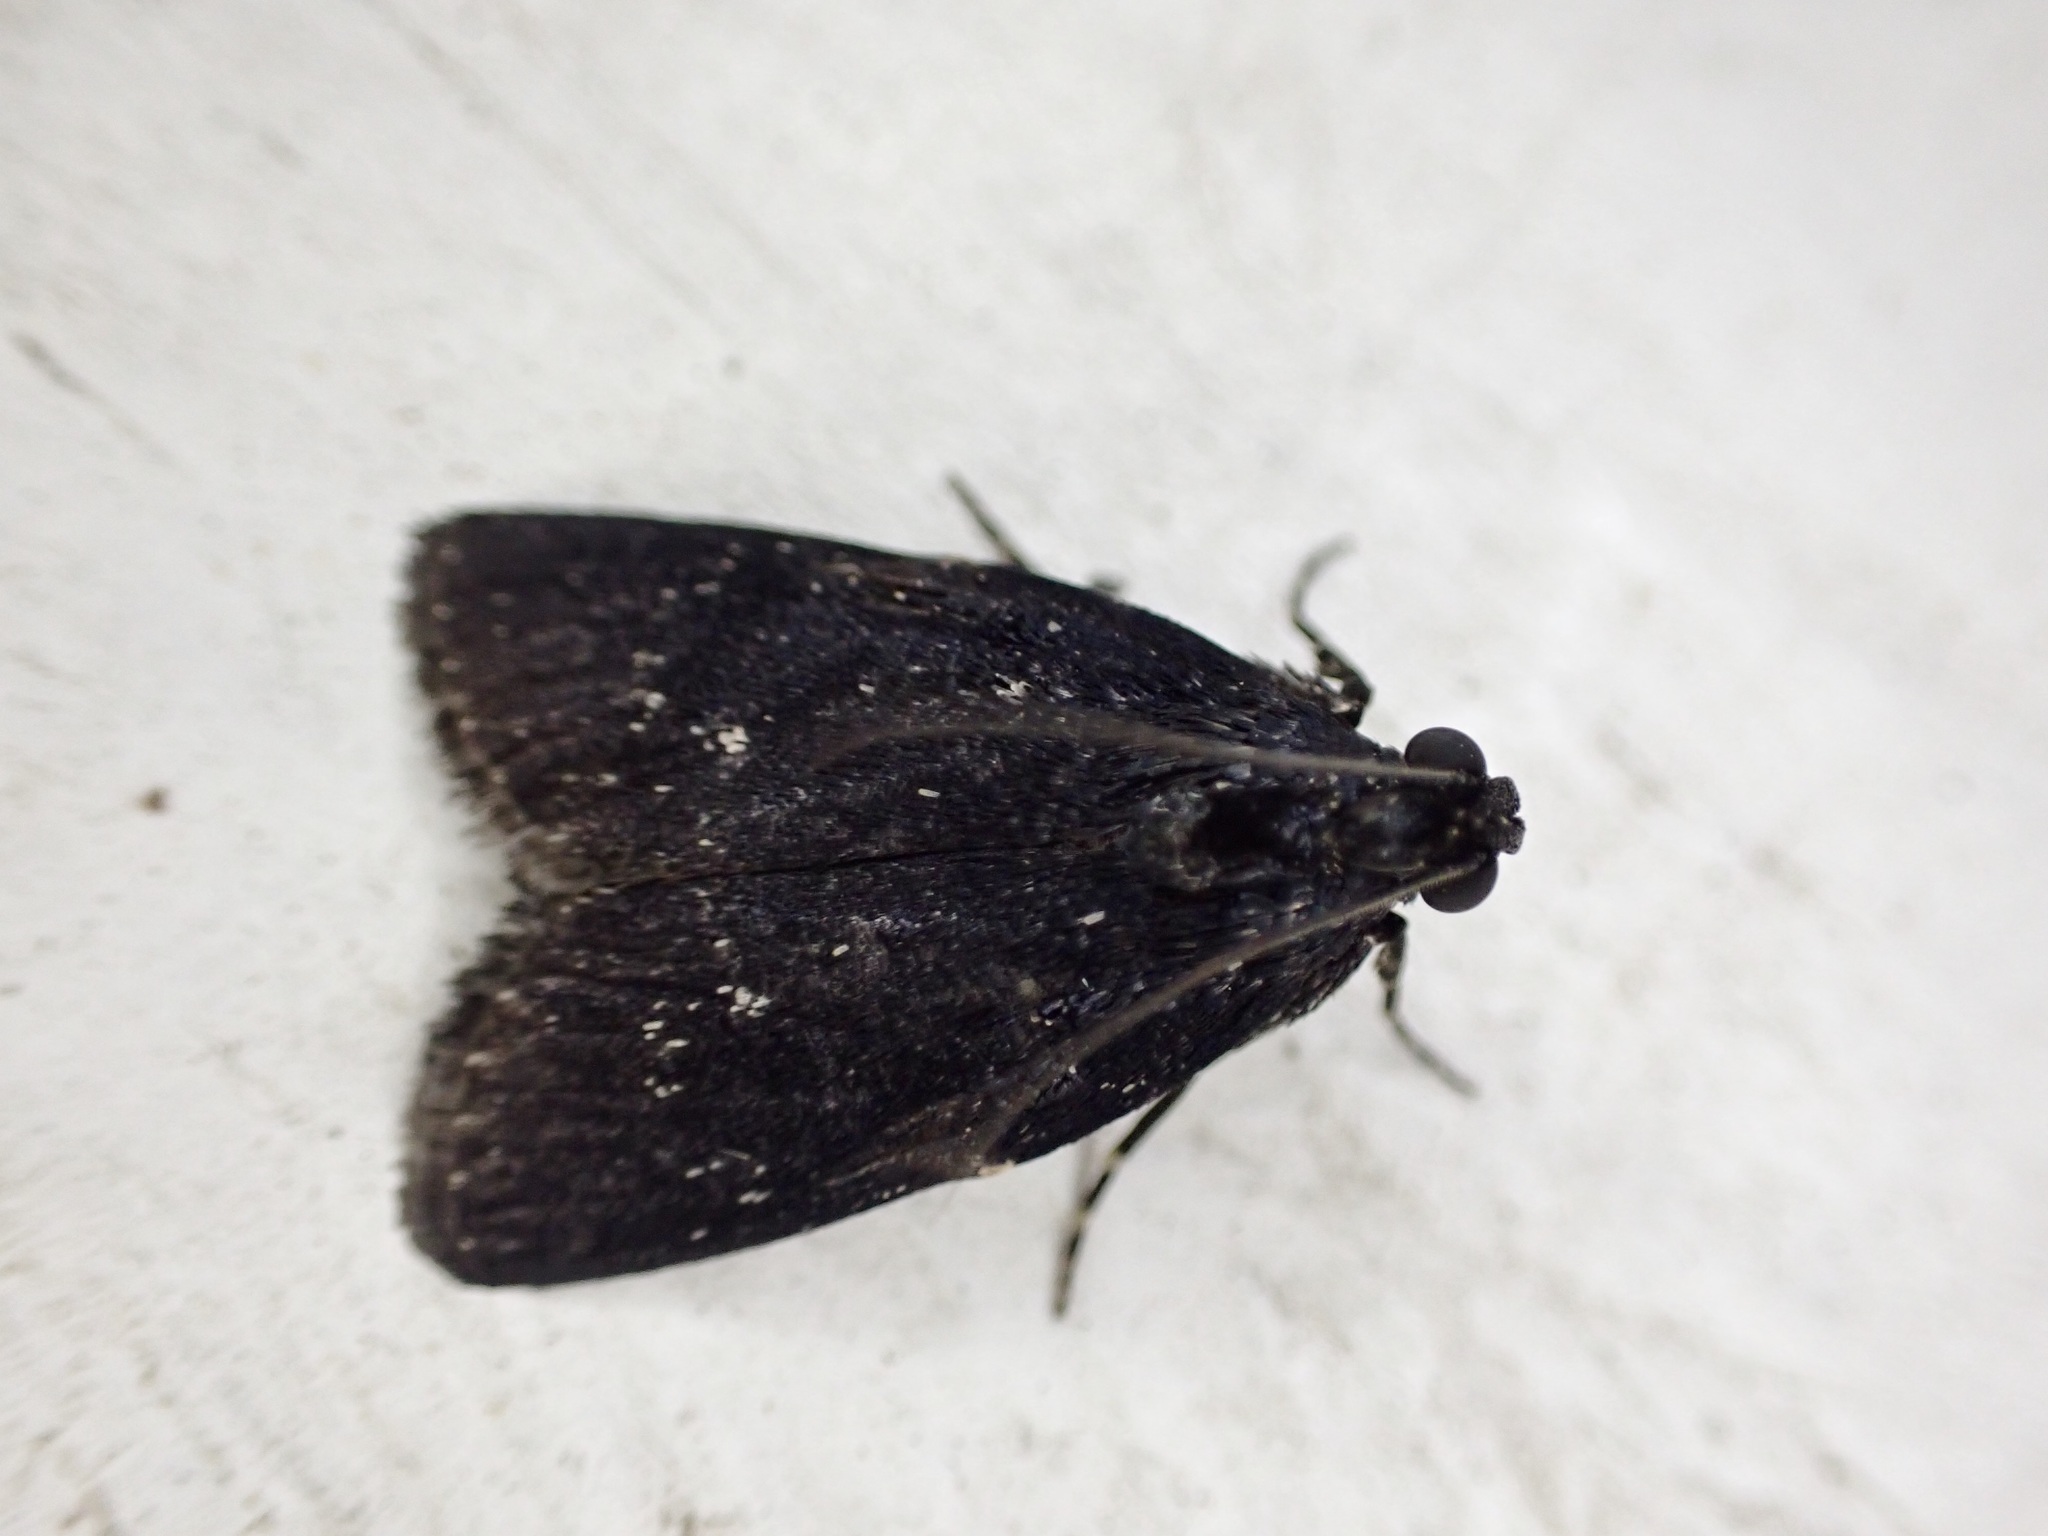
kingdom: Animalia
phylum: Arthropoda
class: Insecta
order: Lepidoptera
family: Pyralidae
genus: Stericta
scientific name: Stericta carbonalis
